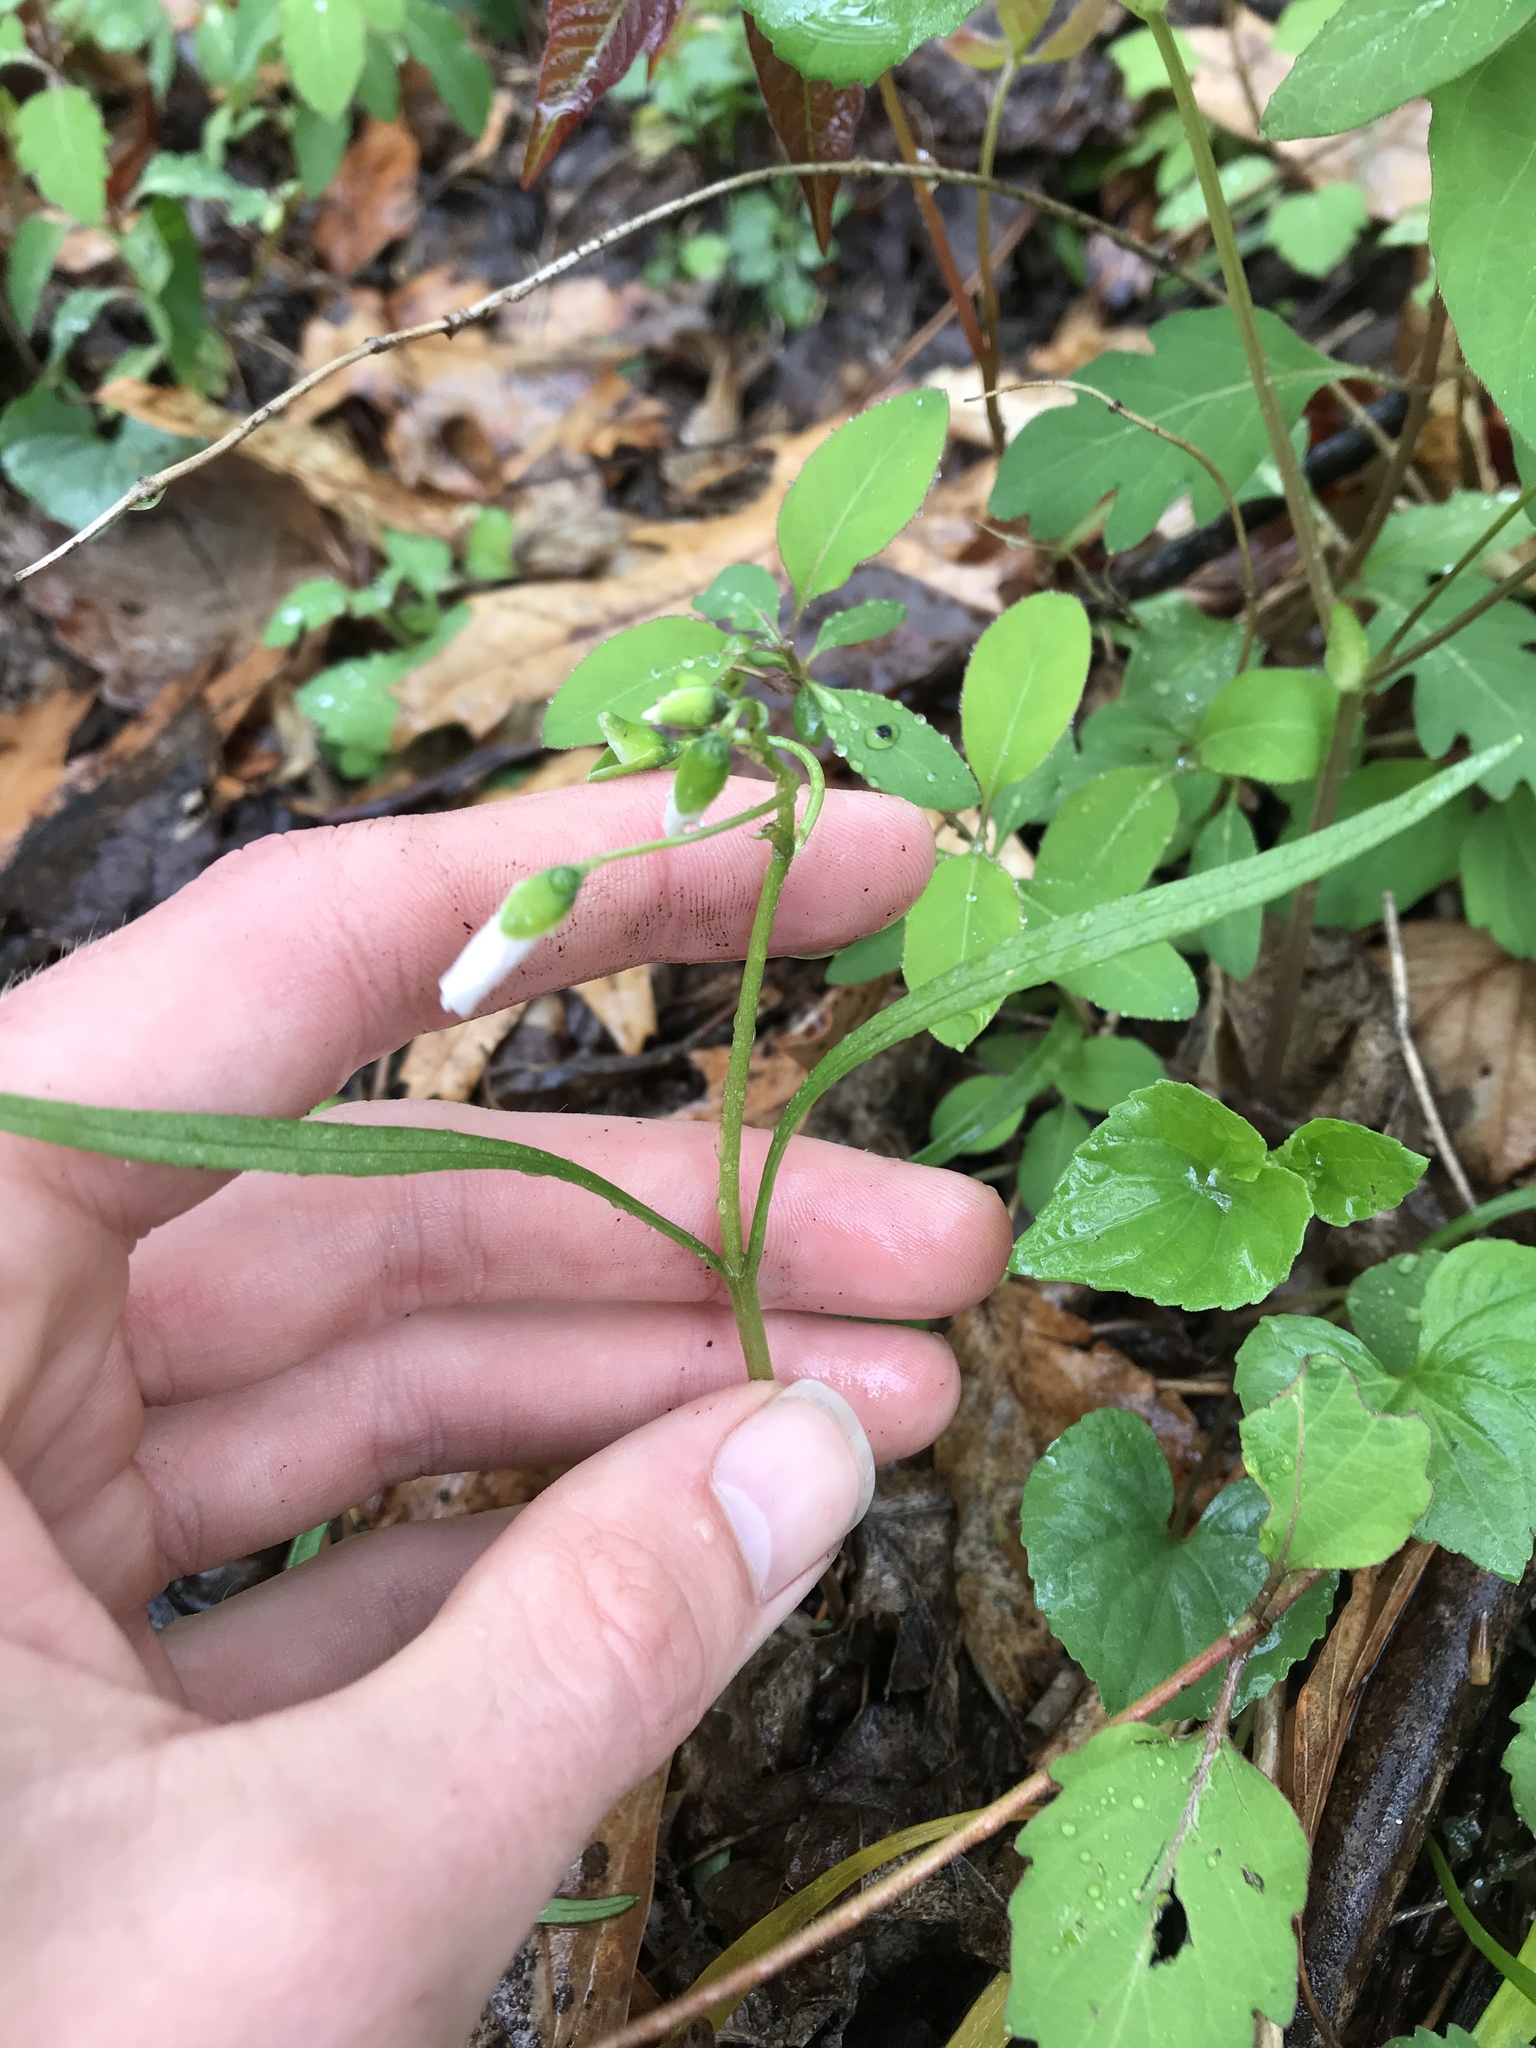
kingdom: Plantae
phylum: Tracheophyta
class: Magnoliopsida
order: Caryophyllales
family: Montiaceae
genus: Claytonia
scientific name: Claytonia virginica
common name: Virginia springbeauty
